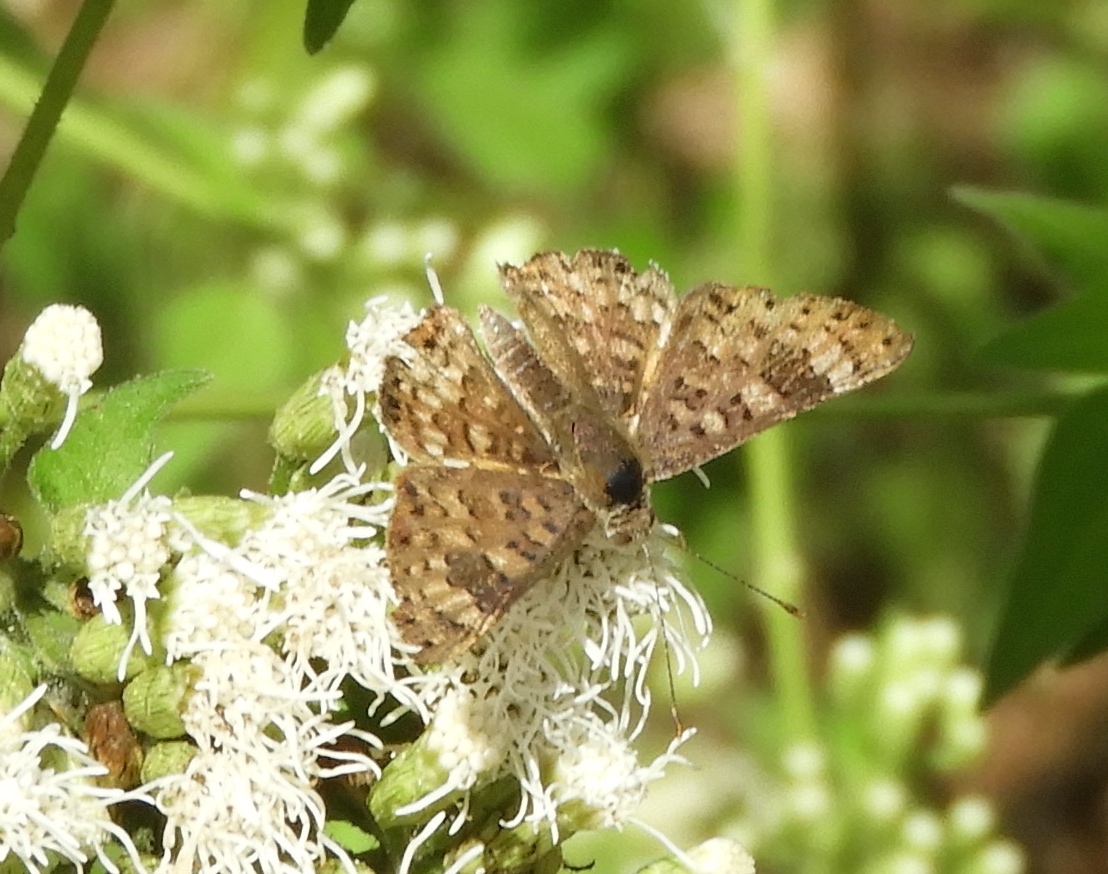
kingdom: Animalia
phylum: Arthropoda
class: Insecta
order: Lepidoptera
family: Riodinidae
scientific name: Riodinidae
